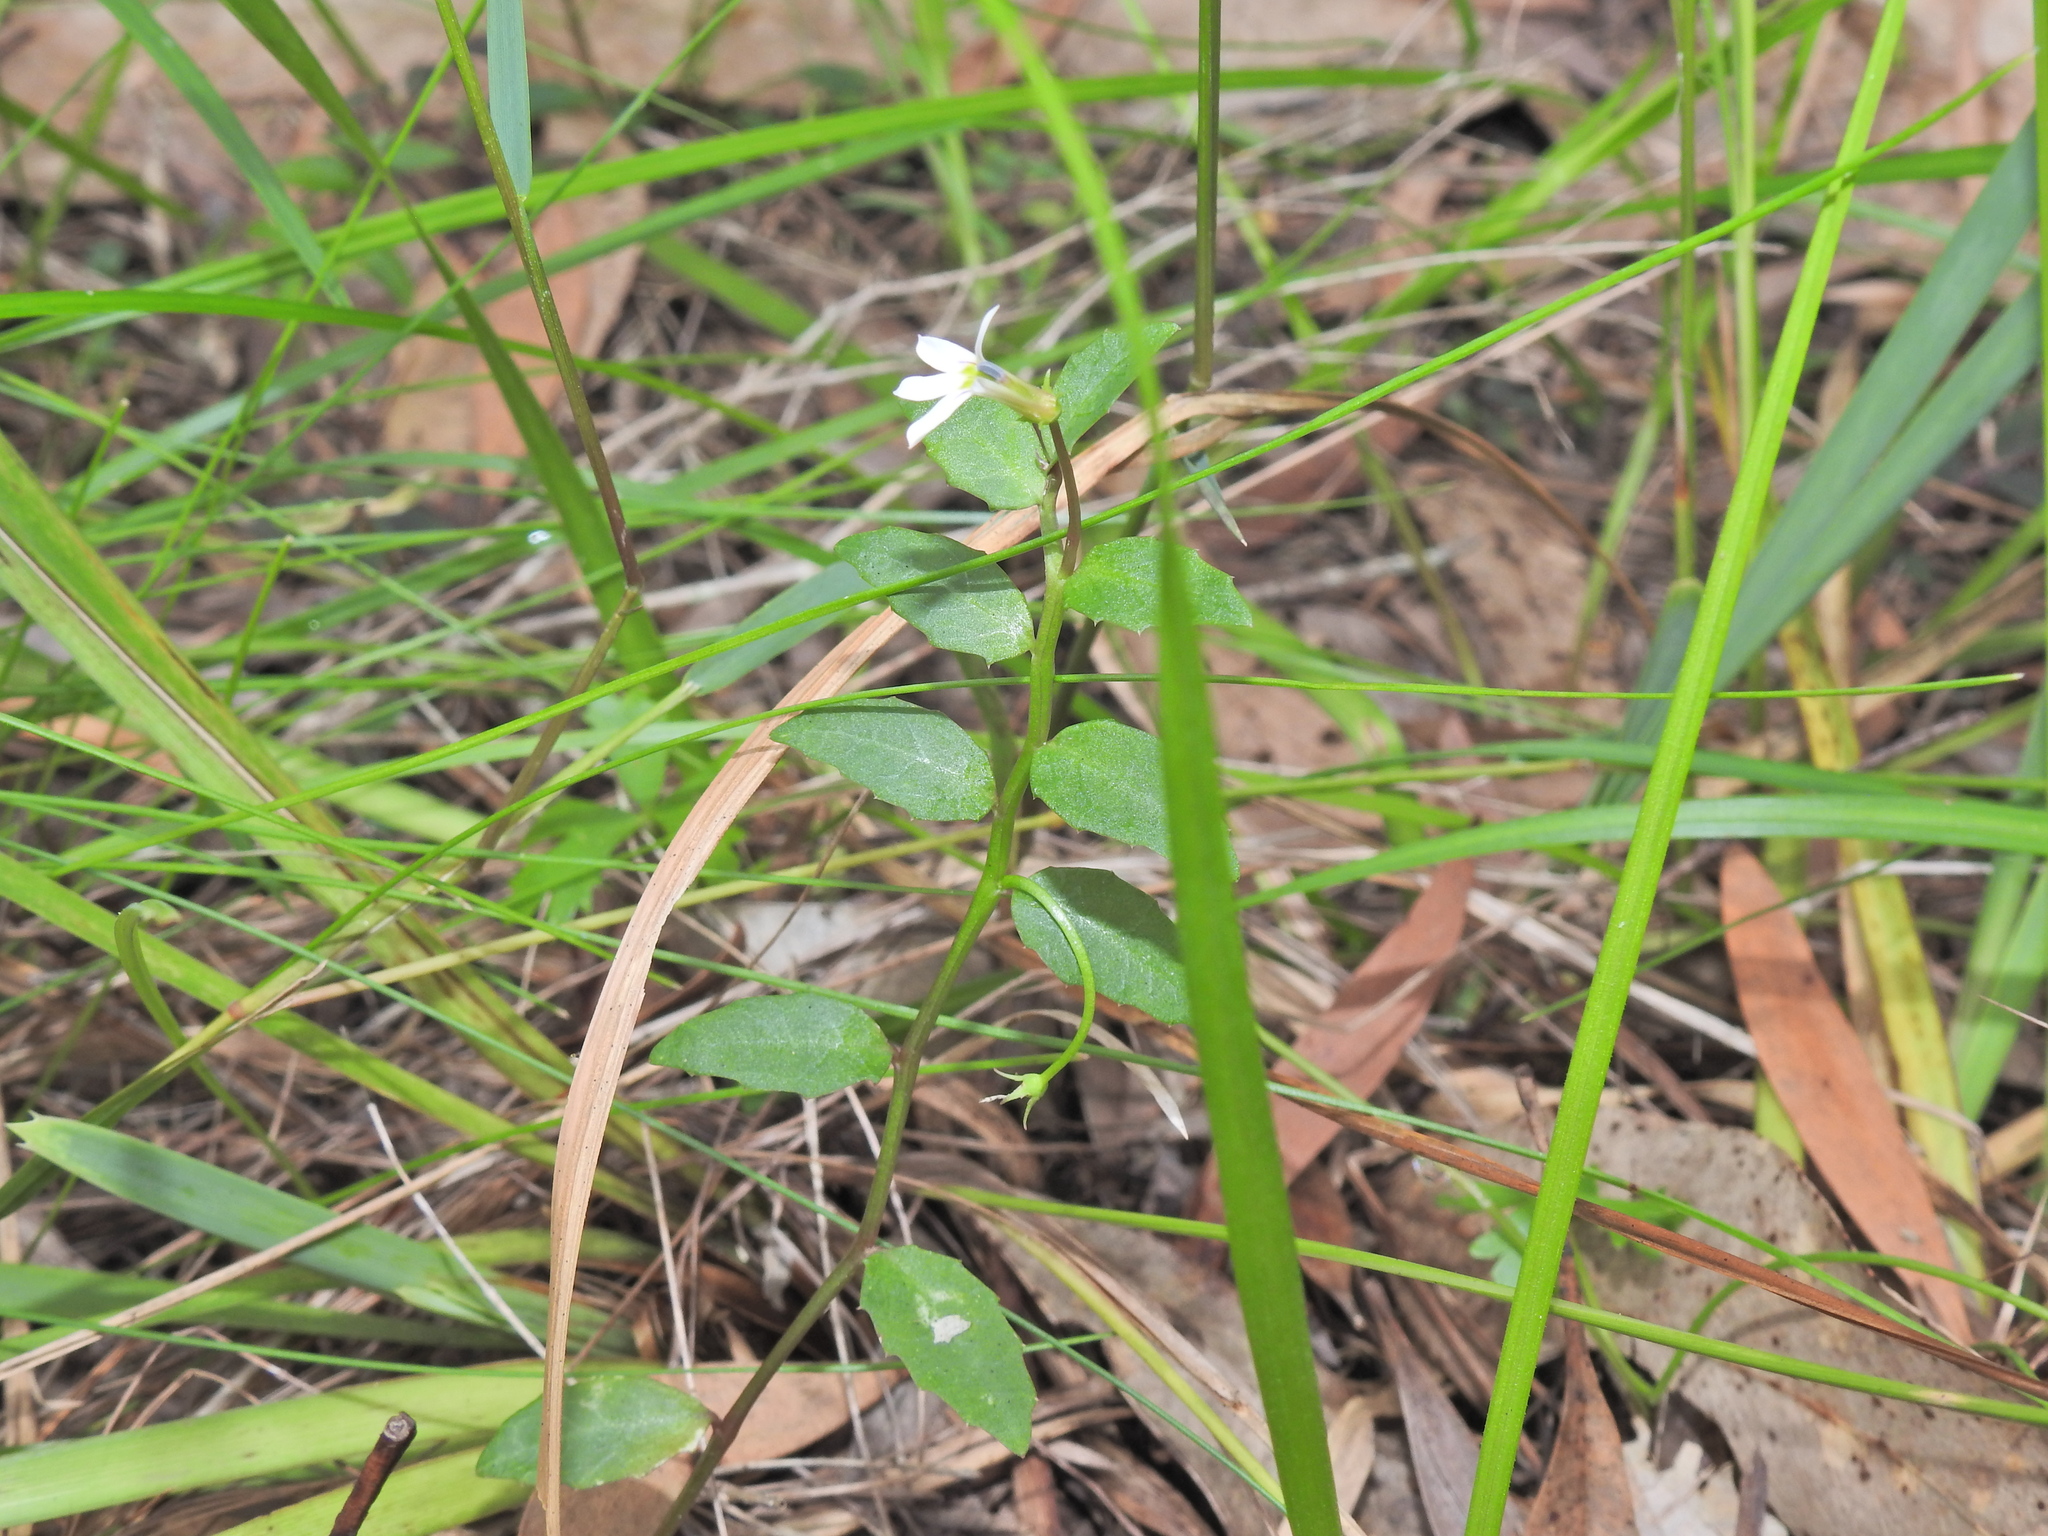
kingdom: Plantae
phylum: Tracheophyta
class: Magnoliopsida
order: Asterales
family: Campanulaceae
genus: Lobelia
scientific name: Lobelia purpurascens
